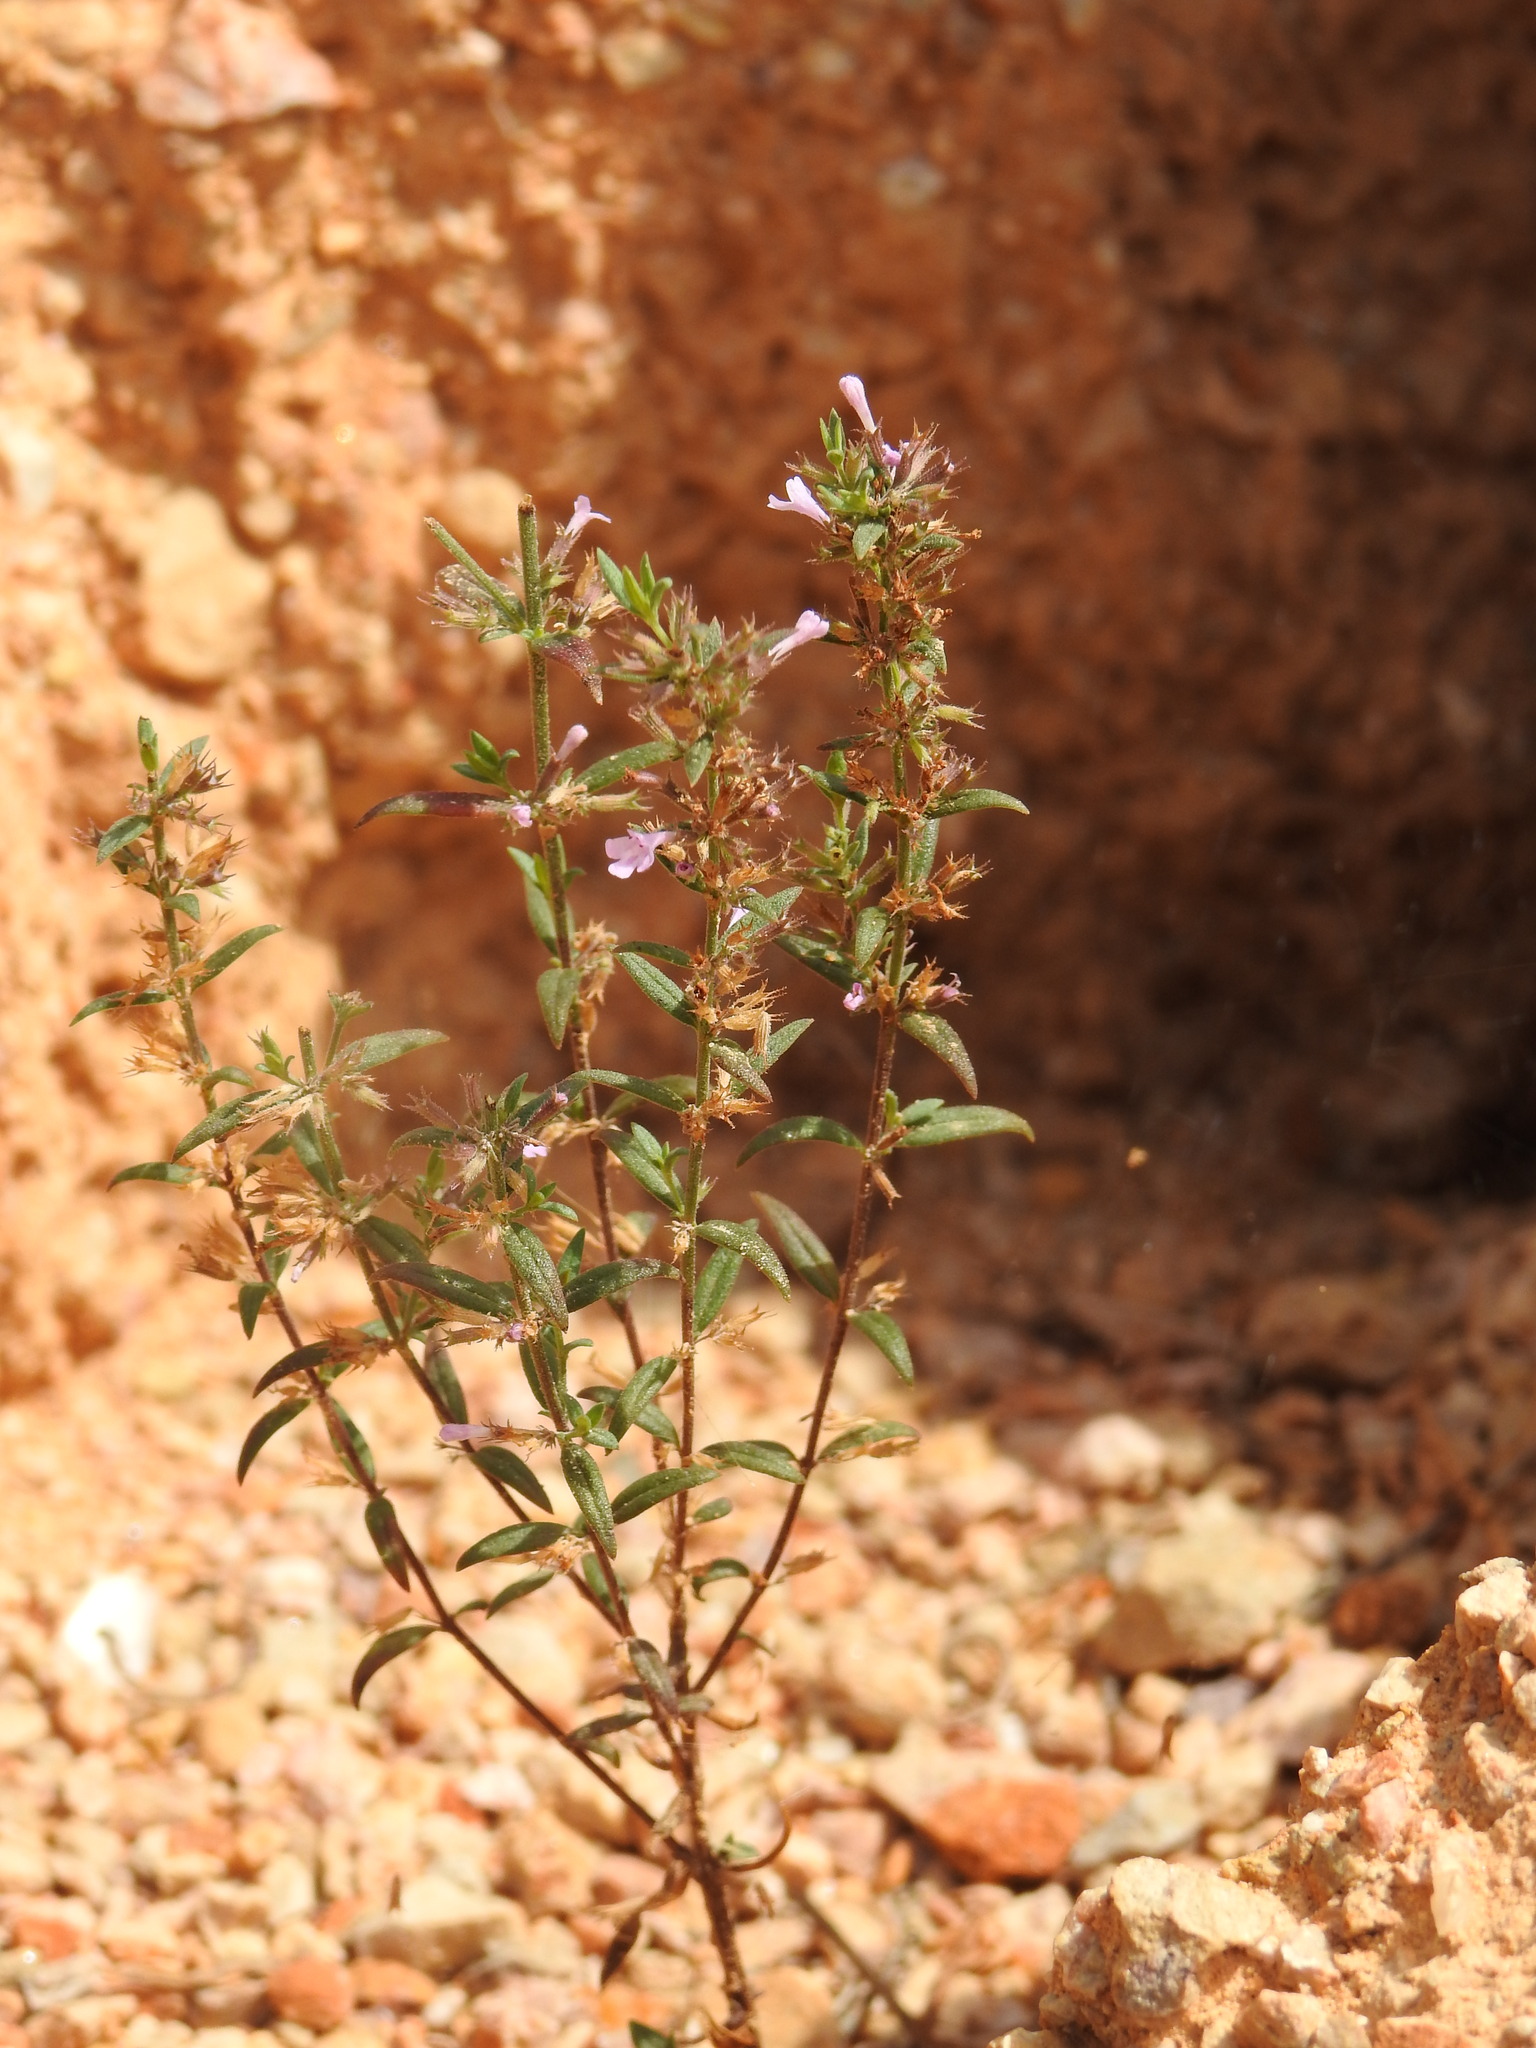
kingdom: Plantae
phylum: Tracheophyta
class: Magnoliopsida
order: Lamiales
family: Lamiaceae
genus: Micromeria
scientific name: Micromeria graeca
